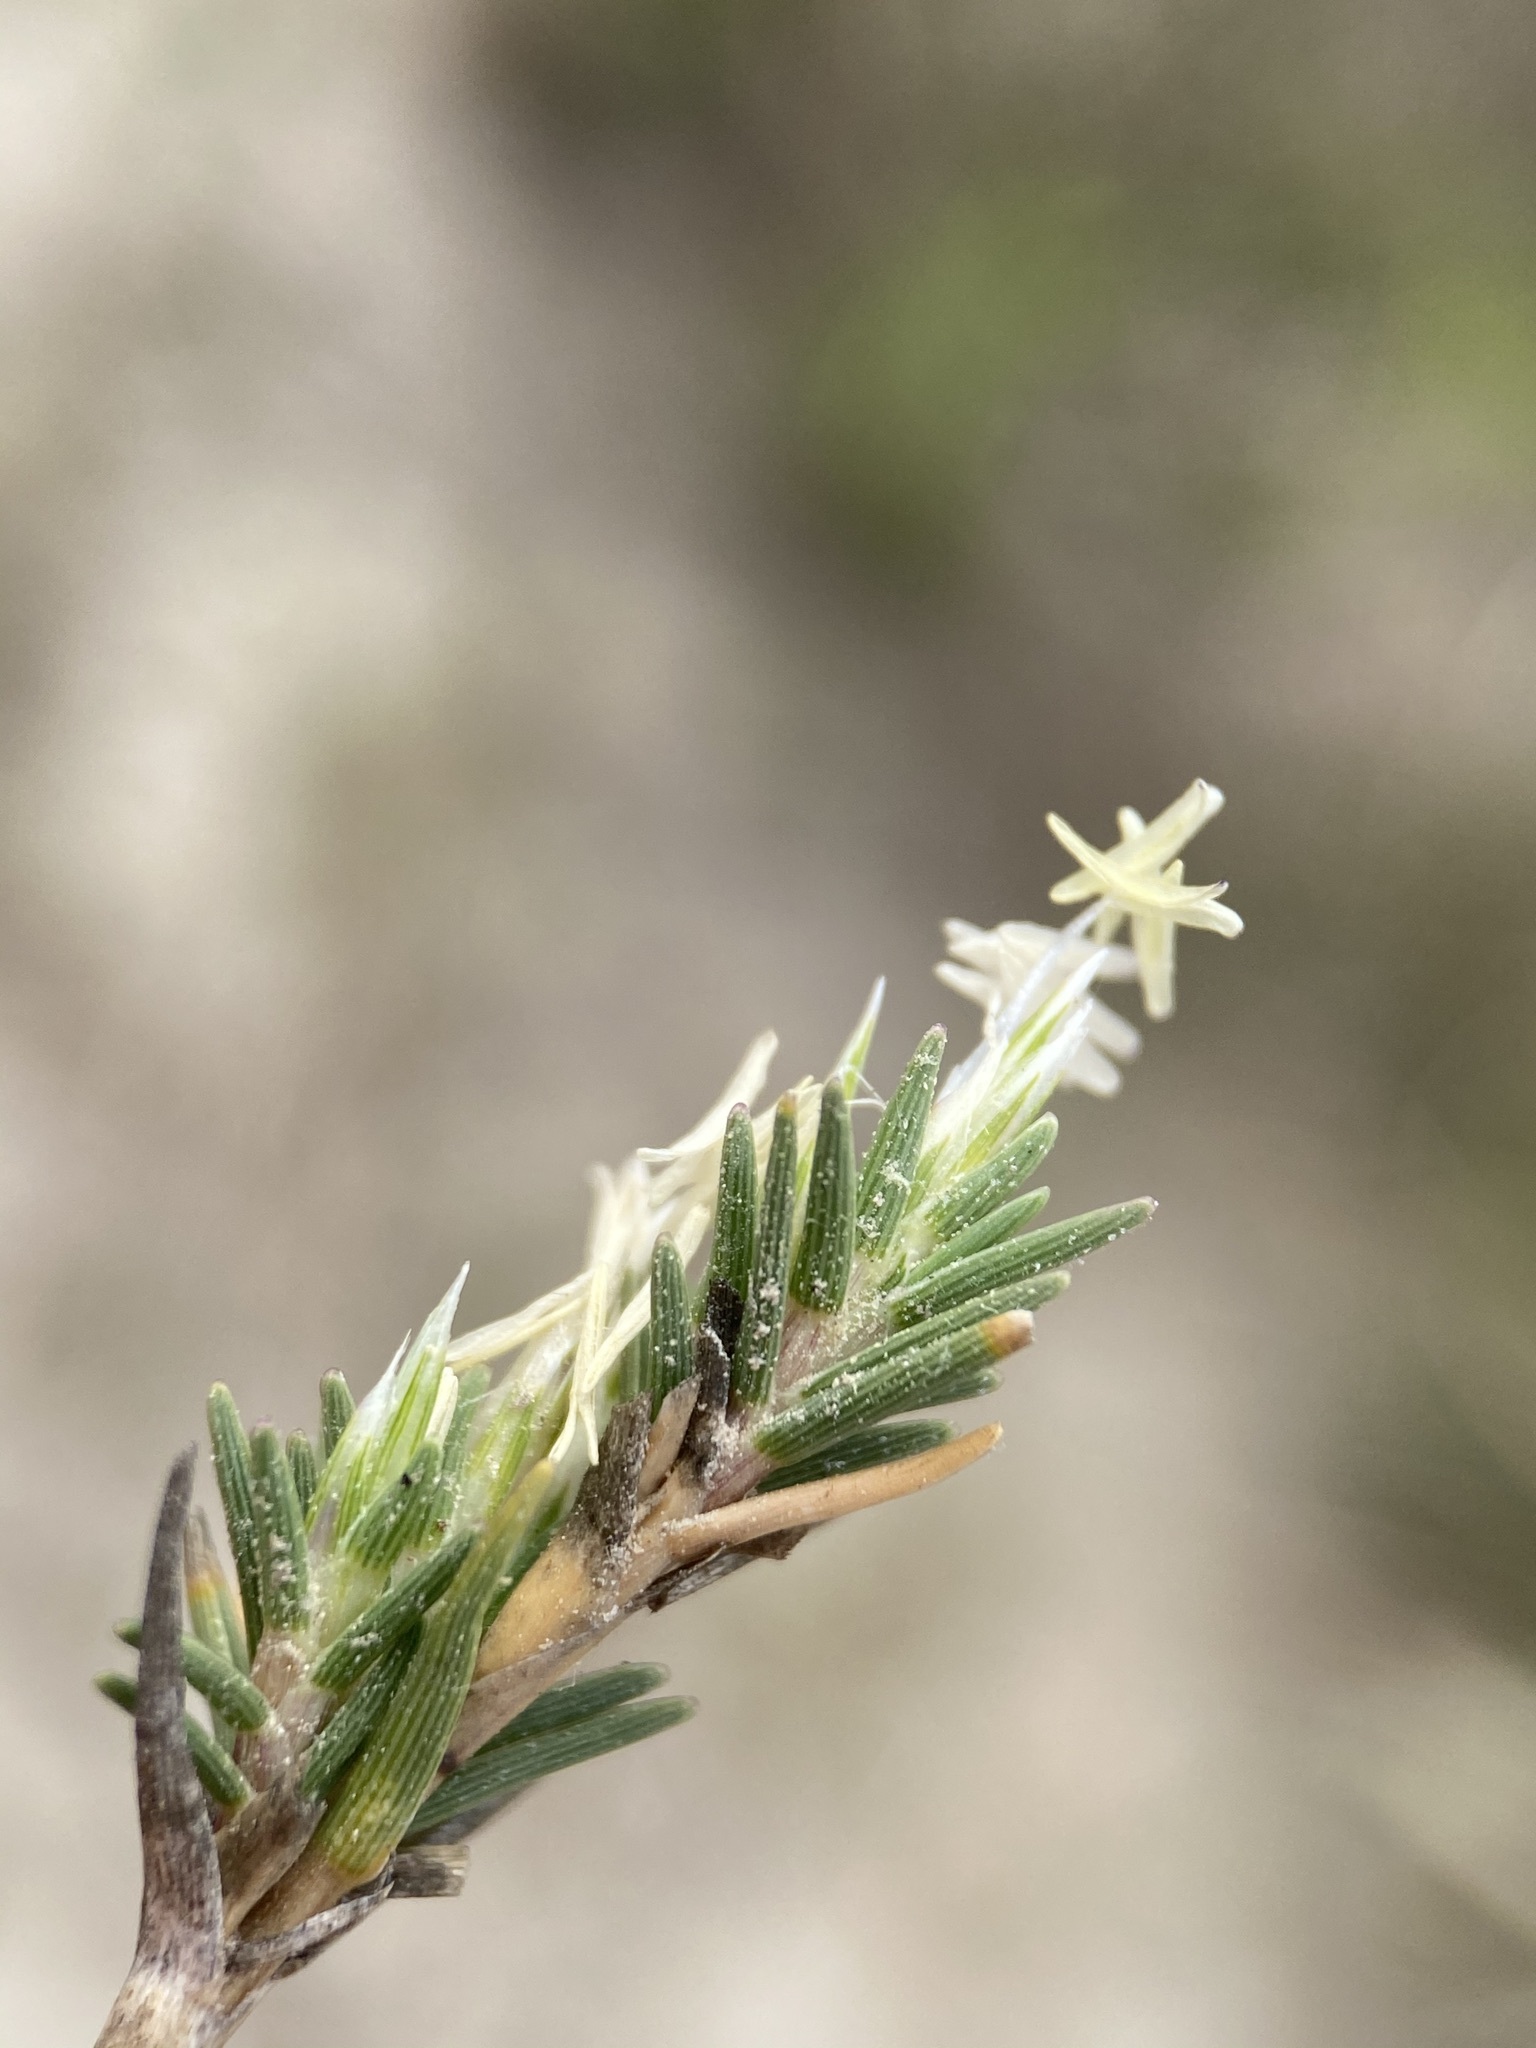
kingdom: Plantae
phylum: Tracheophyta
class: Liliopsida
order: Poales
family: Poaceae
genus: Distichlis
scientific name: Distichlis littoralis
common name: Shore grass
